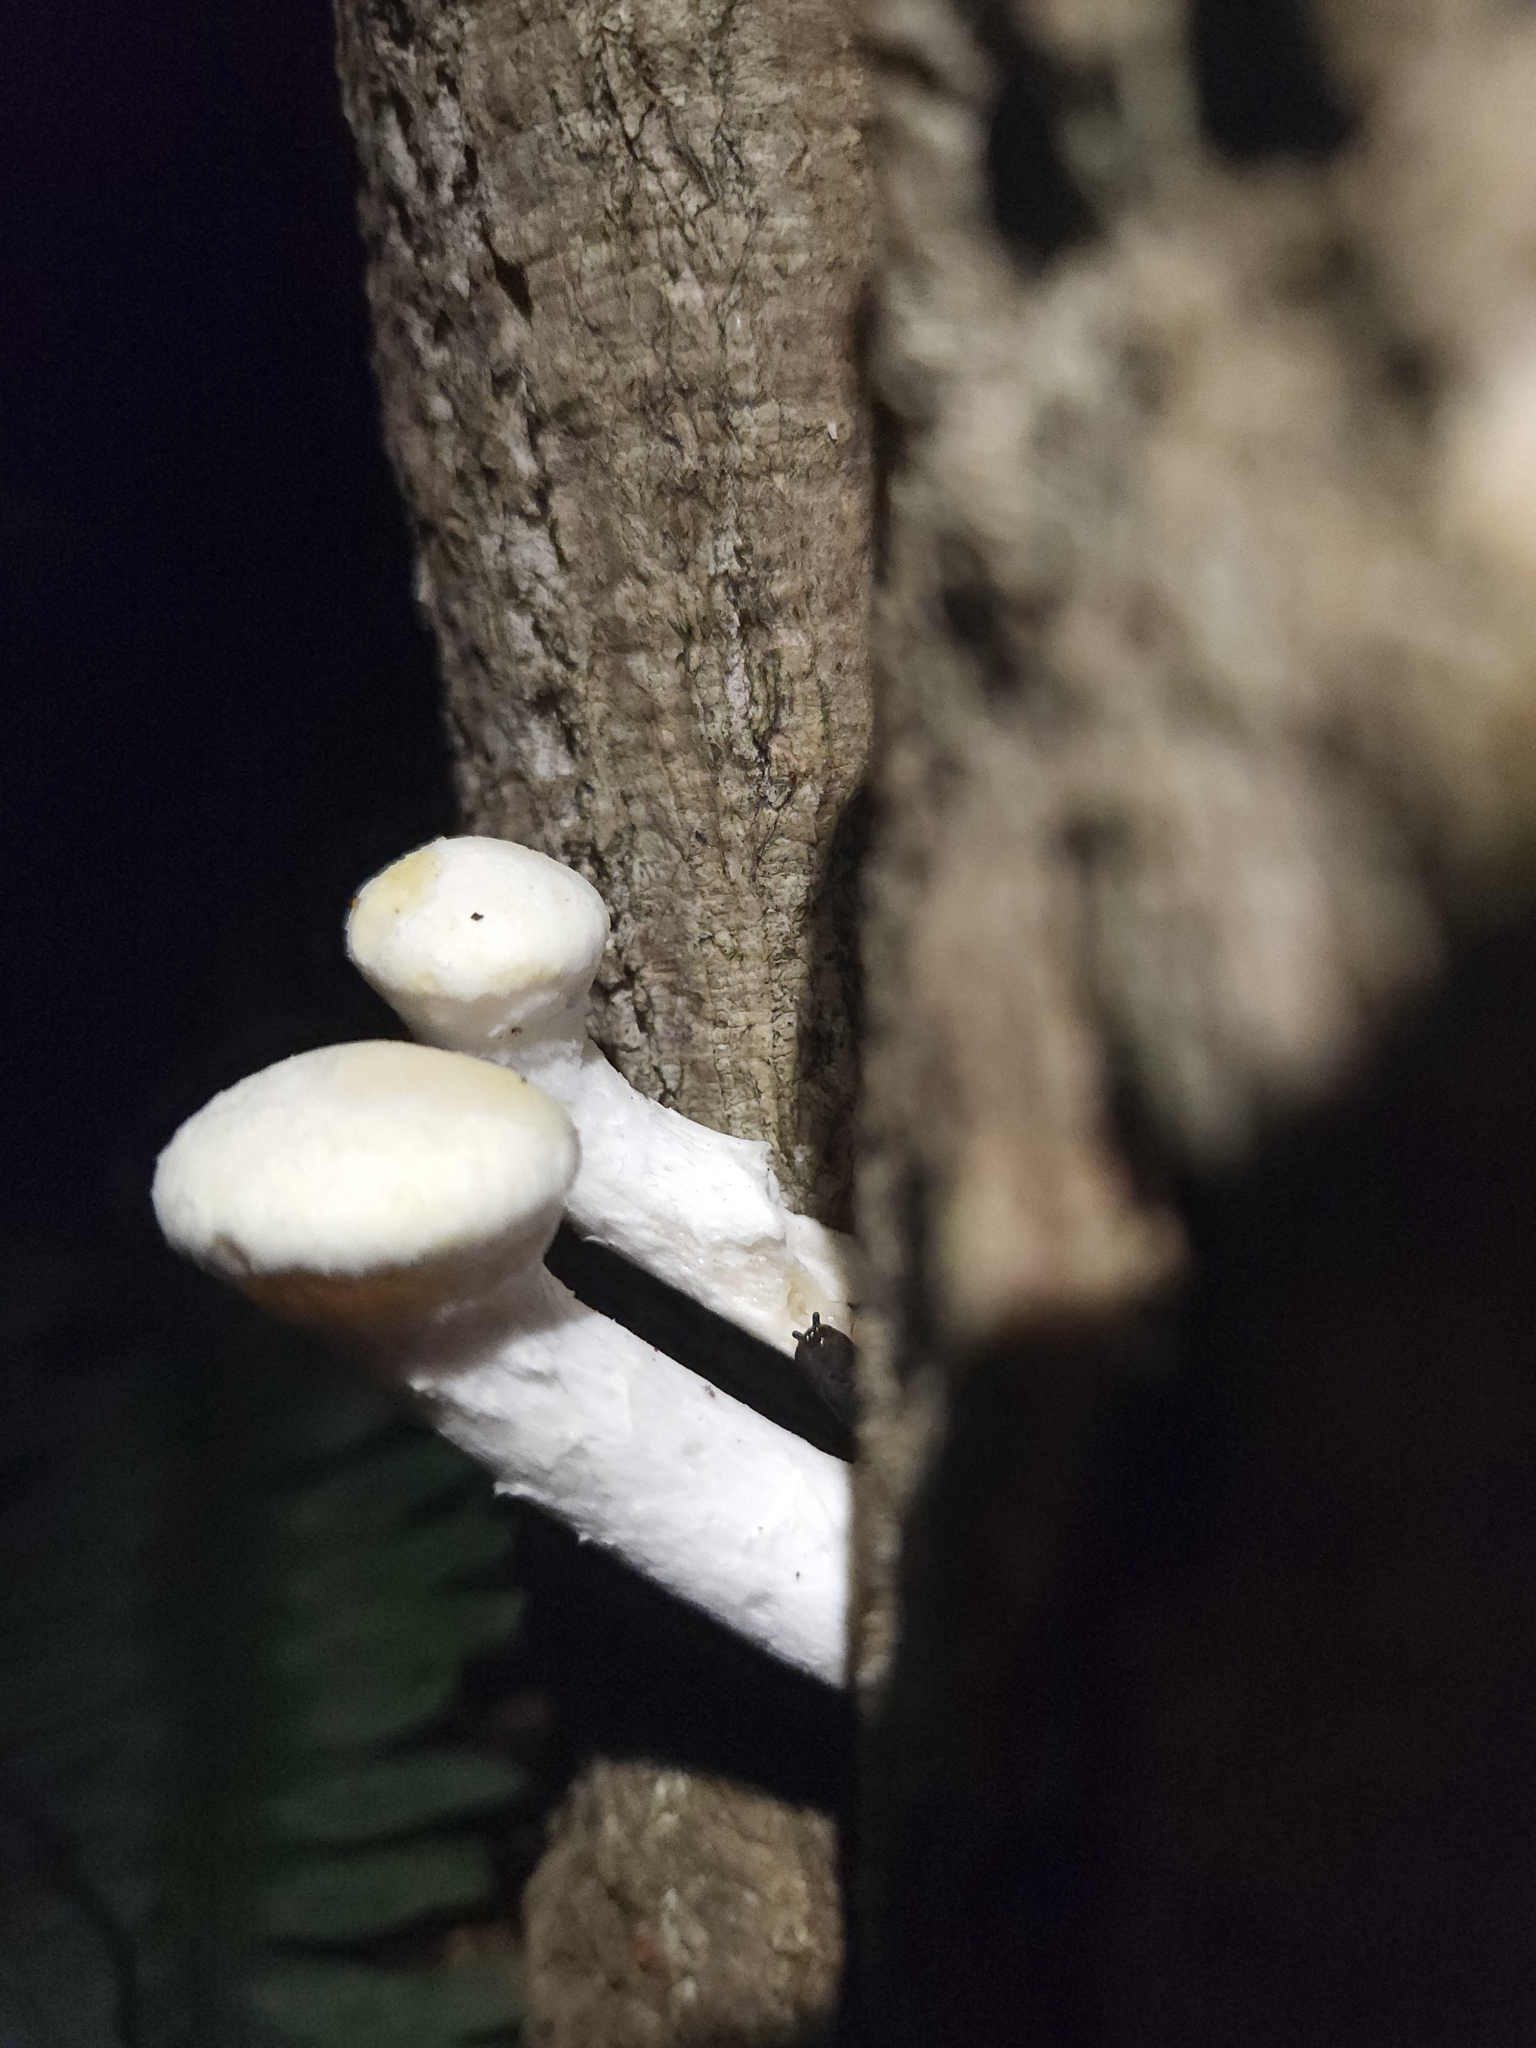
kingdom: Fungi
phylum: Basidiomycota
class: Agaricomycetes
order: Polyporales
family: Polyporaceae
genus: Lentinus
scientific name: Lentinus levis
